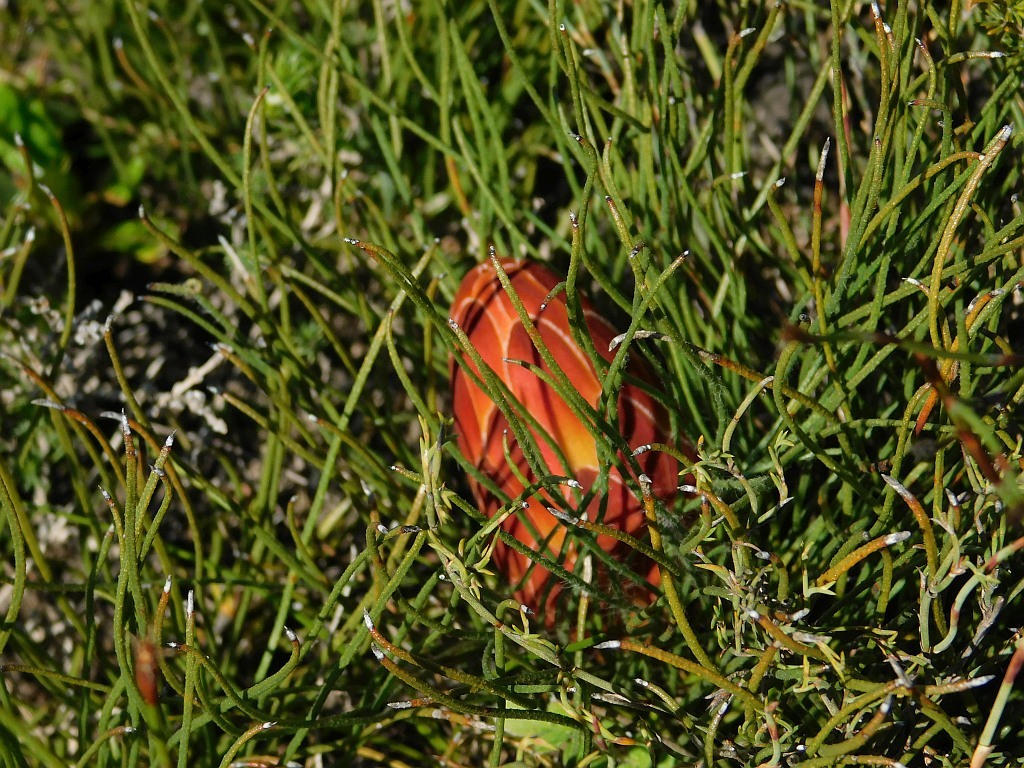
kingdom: Plantae
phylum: Tracheophyta
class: Magnoliopsida
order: Proteales
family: Proteaceae
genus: Protea
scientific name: Protea restionifolia
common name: Reed-leaf sugarbush
